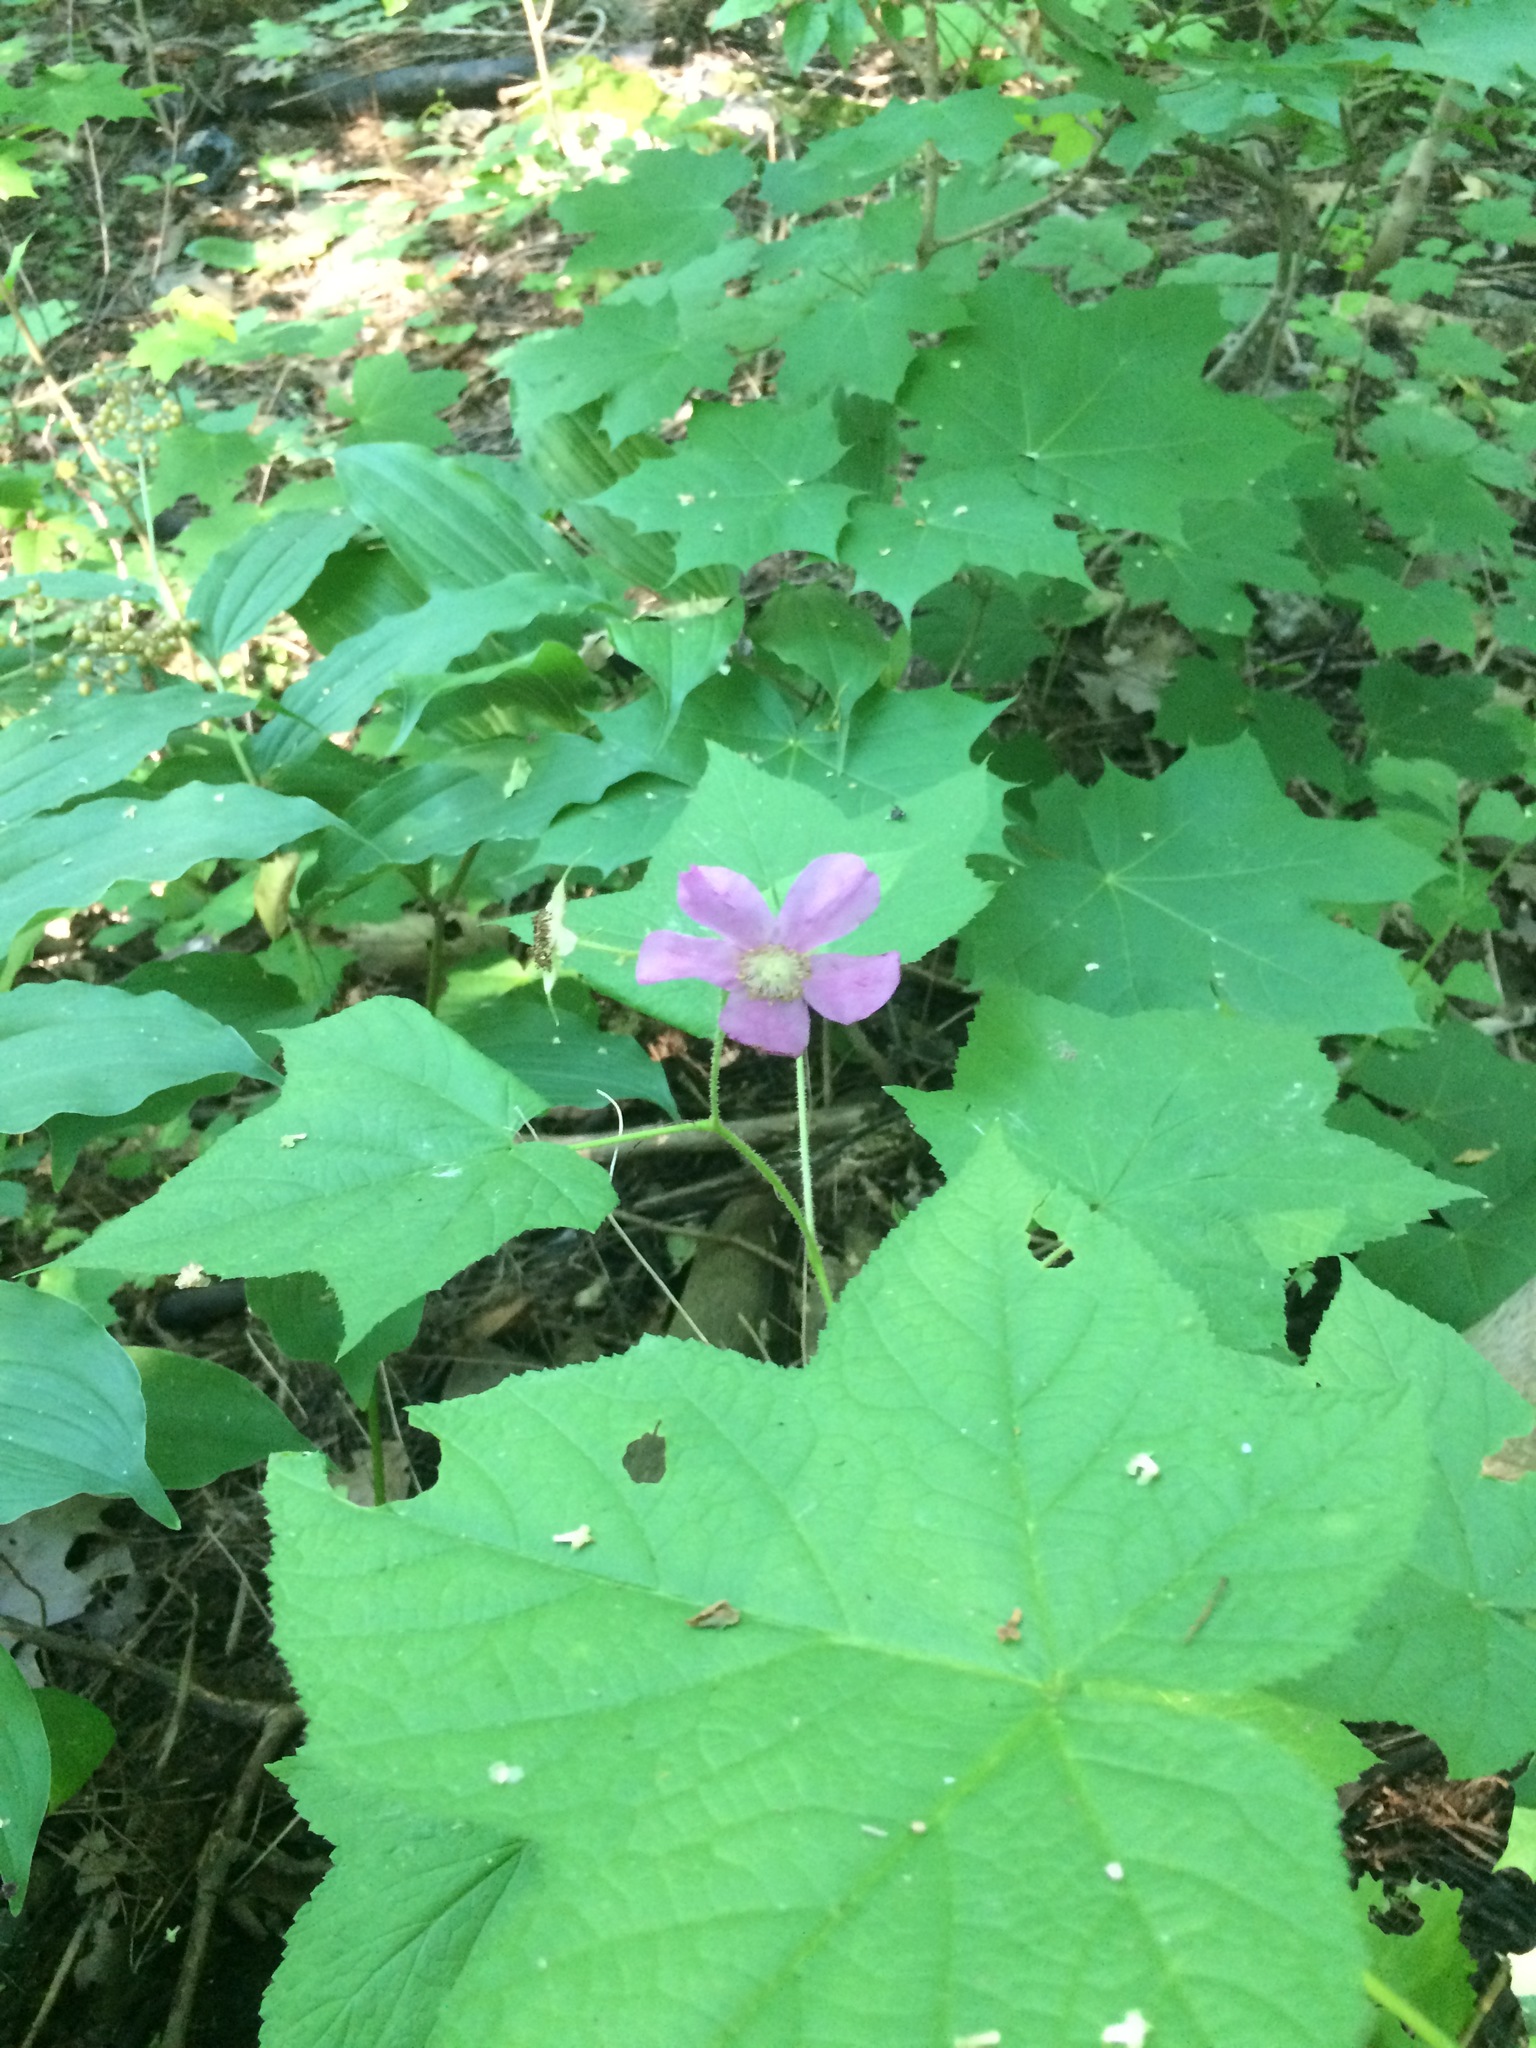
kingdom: Plantae
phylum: Tracheophyta
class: Magnoliopsida
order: Rosales
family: Rosaceae
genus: Rubus
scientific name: Rubus odoratus
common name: Purple-flowered raspberry
